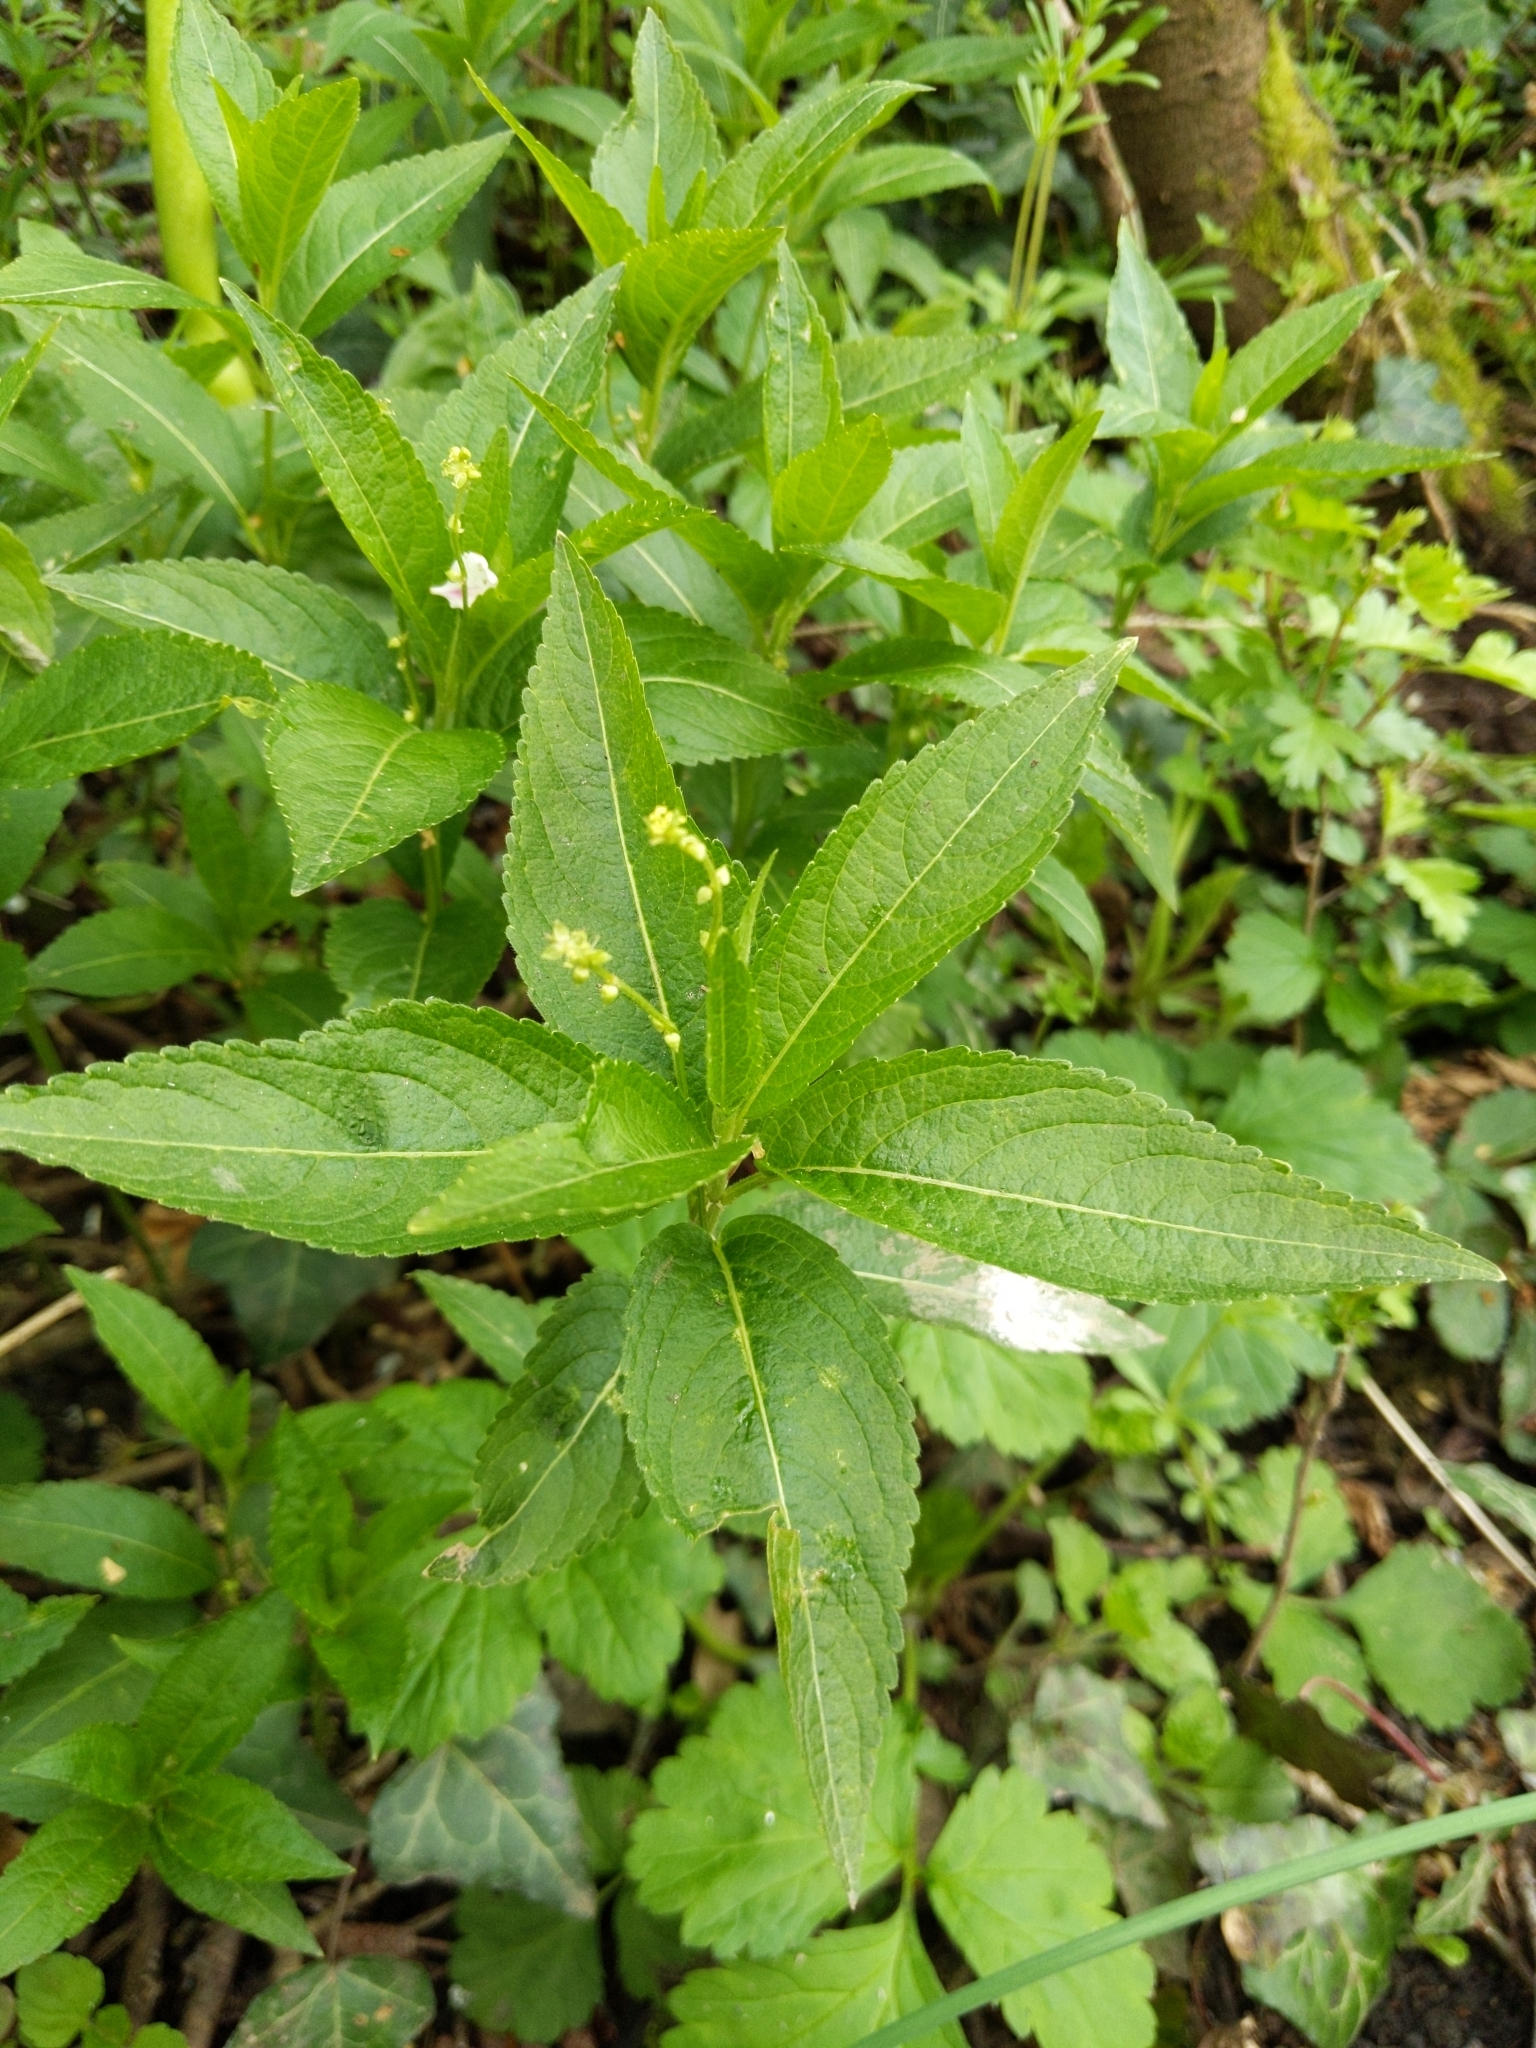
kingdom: Plantae
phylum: Tracheophyta
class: Magnoliopsida
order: Malpighiales
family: Euphorbiaceae
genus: Mercurialis
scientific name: Mercurialis perennis
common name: Dog mercury
